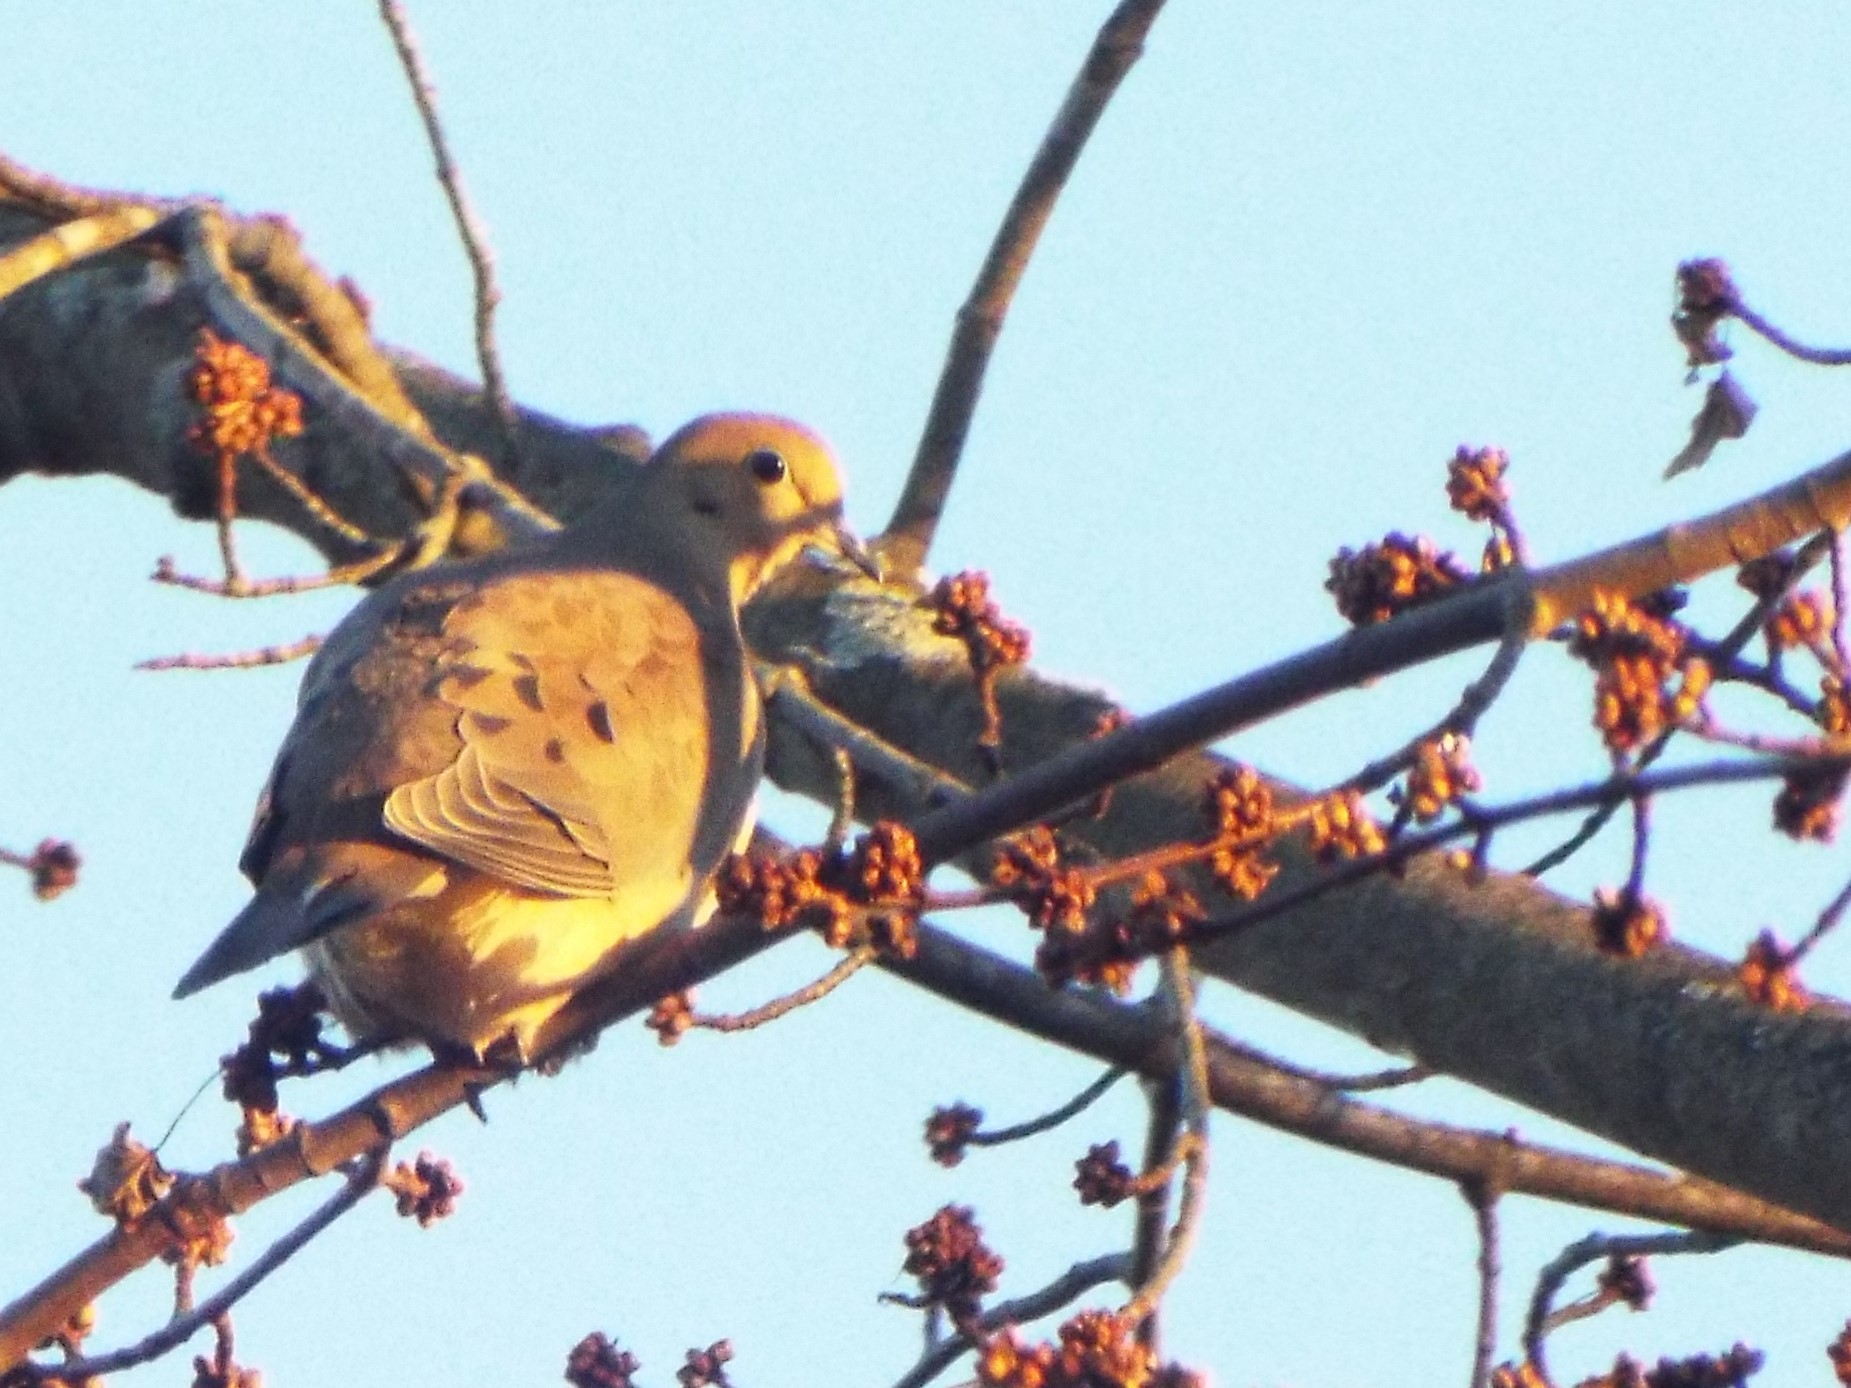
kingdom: Animalia
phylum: Chordata
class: Aves
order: Columbiformes
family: Columbidae
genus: Zenaida
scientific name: Zenaida macroura
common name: Mourning dove
